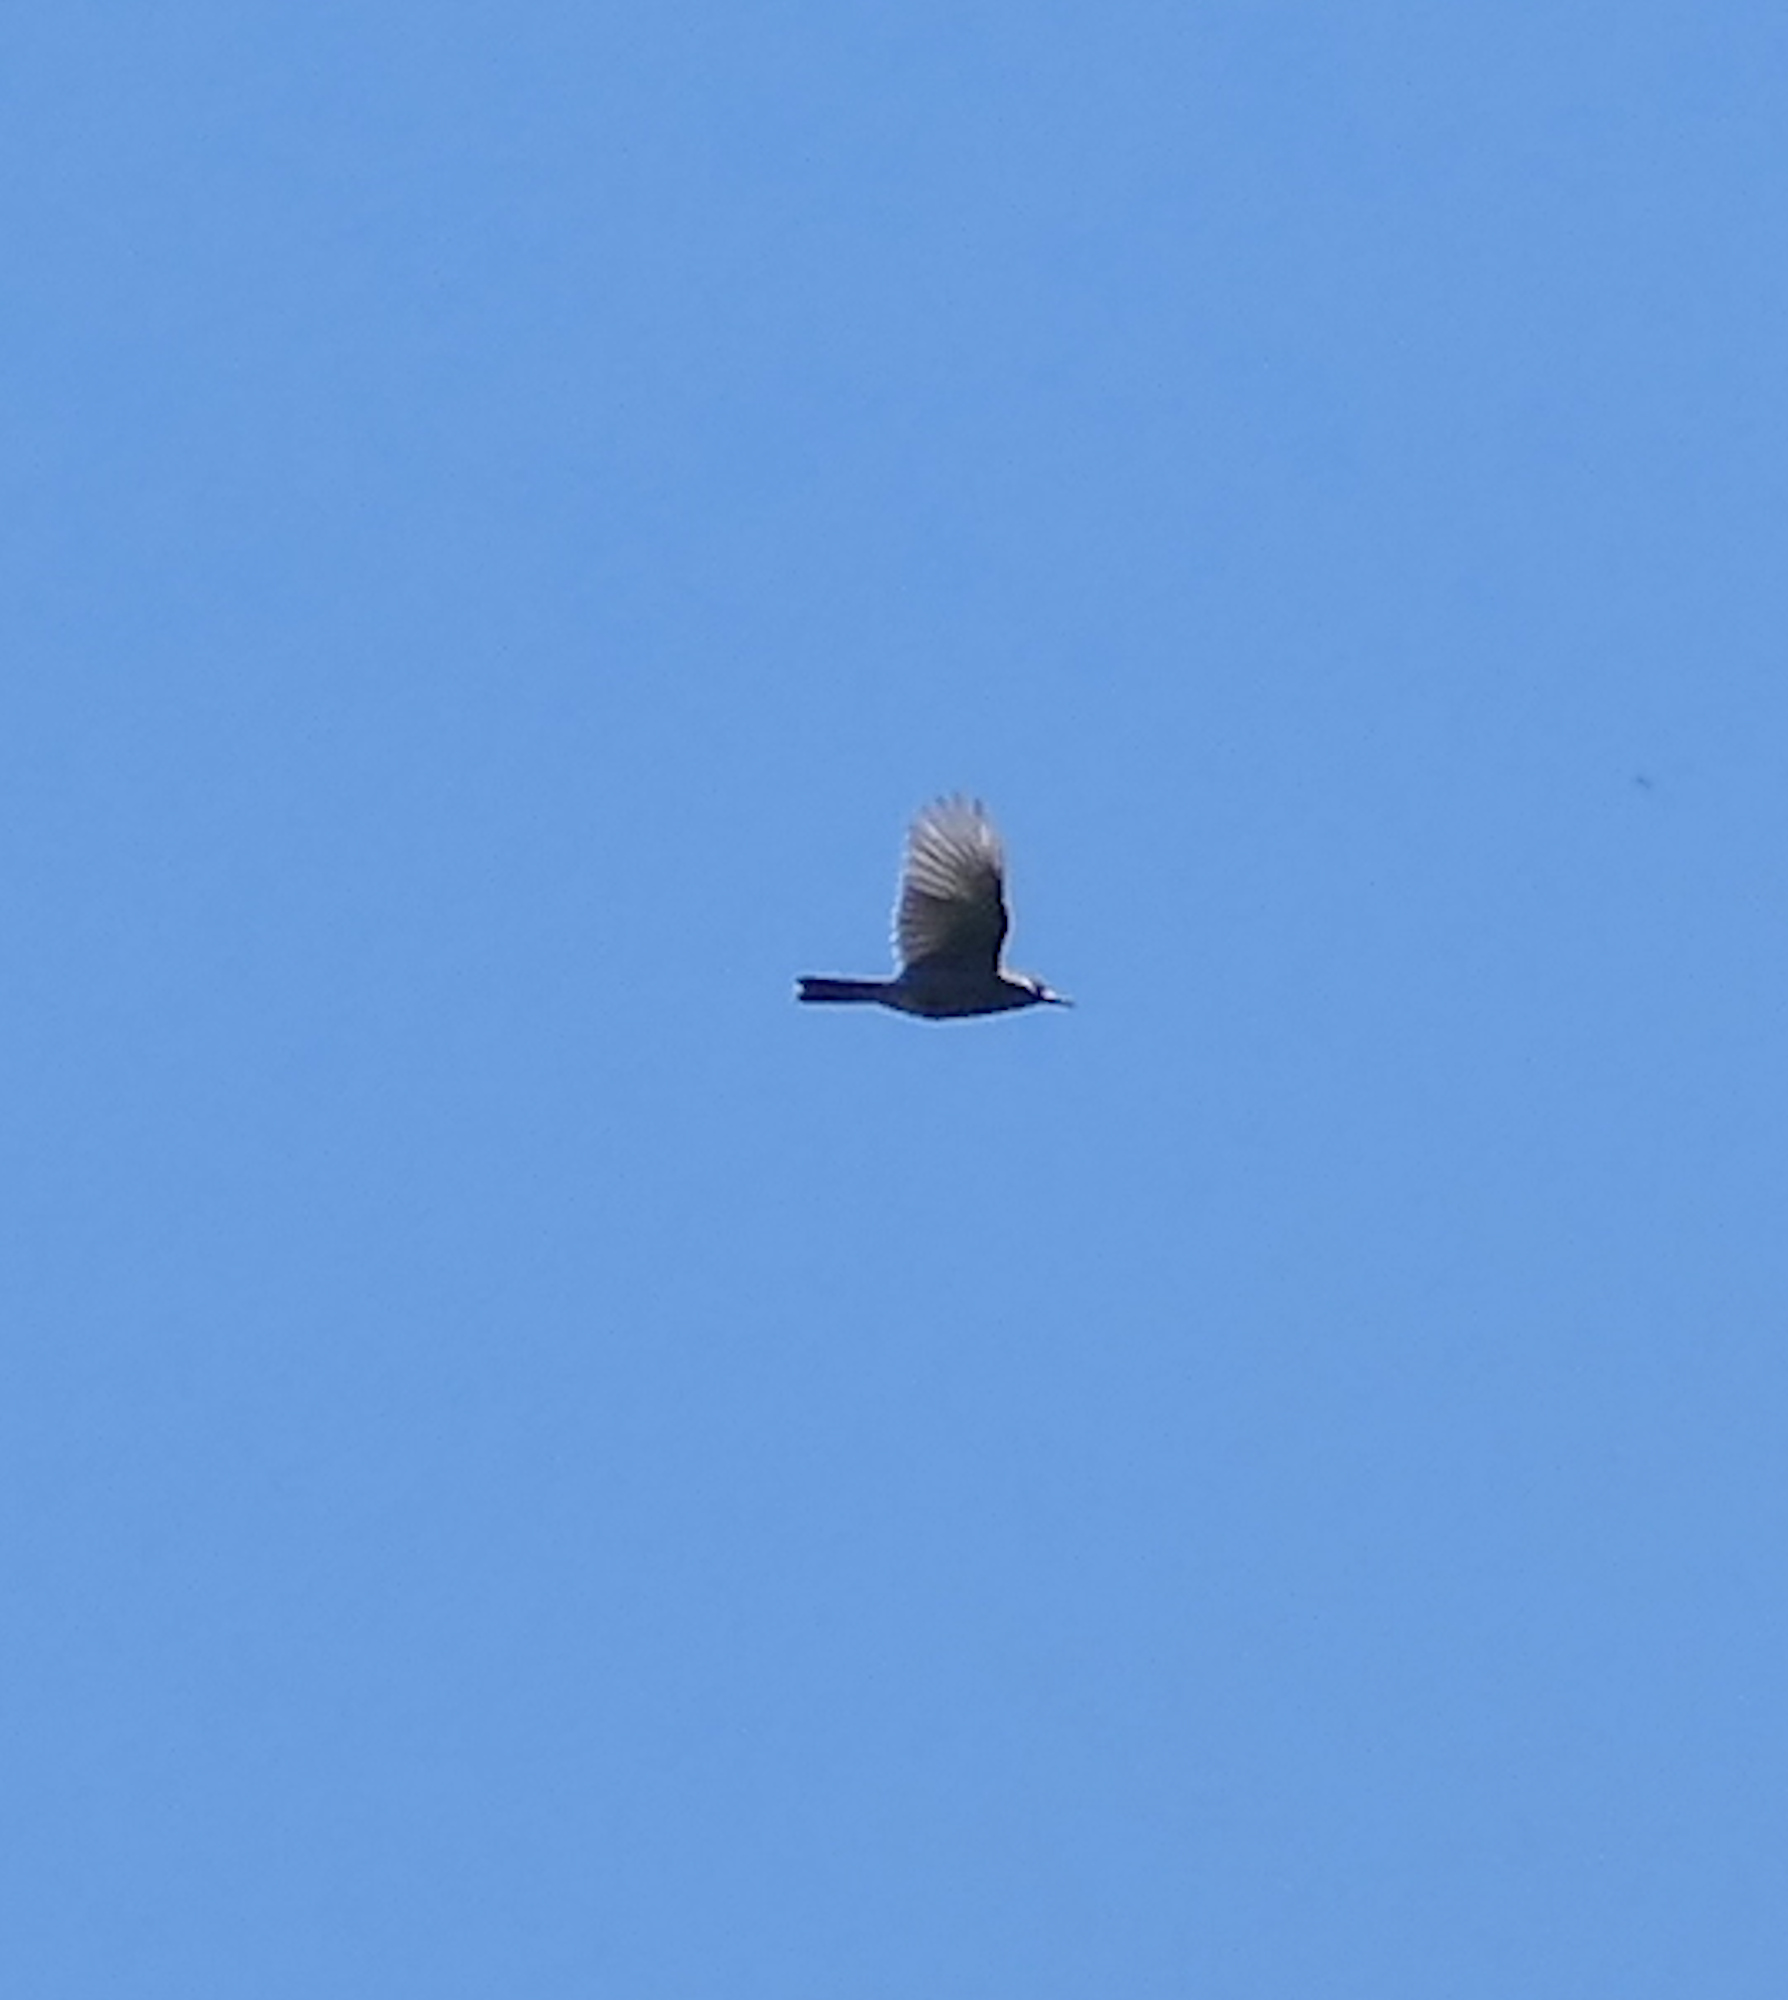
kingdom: Animalia
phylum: Chordata
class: Aves
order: Passeriformes
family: Corvidae
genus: Gymnorhinus
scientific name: Gymnorhinus cyanocephalus
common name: Pinyon jay
